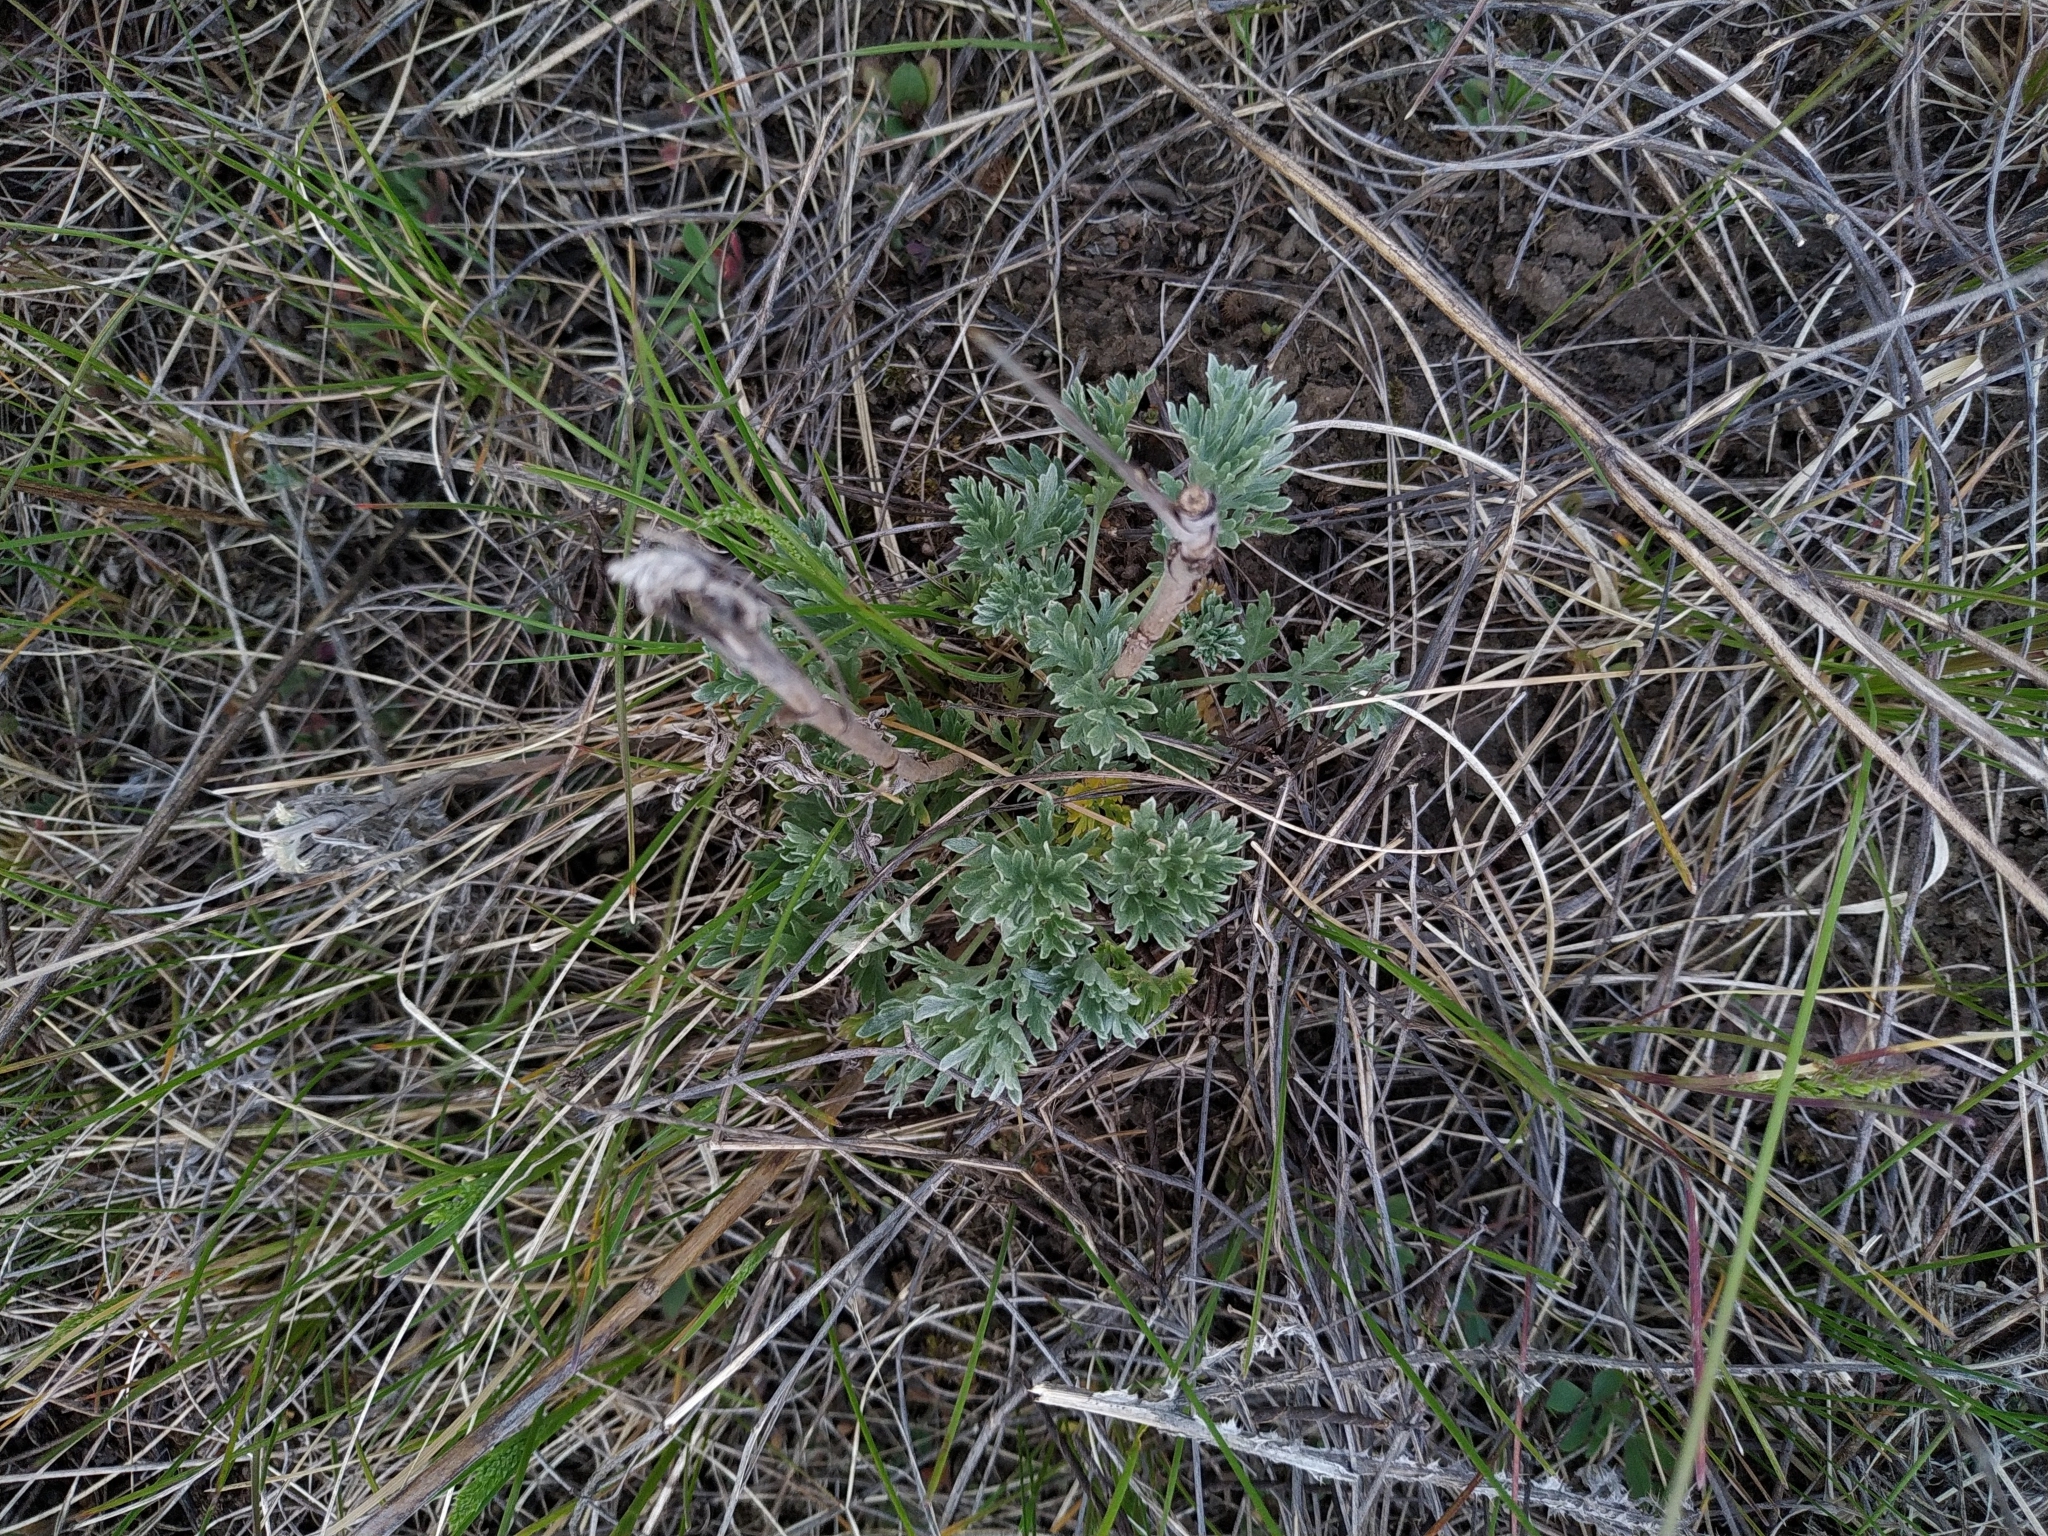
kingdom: Plantae
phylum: Tracheophyta
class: Magnoliopsida
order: Asterales
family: Asteraceae
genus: Artemisia
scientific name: Artemisia absinthium
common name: Wormwood
